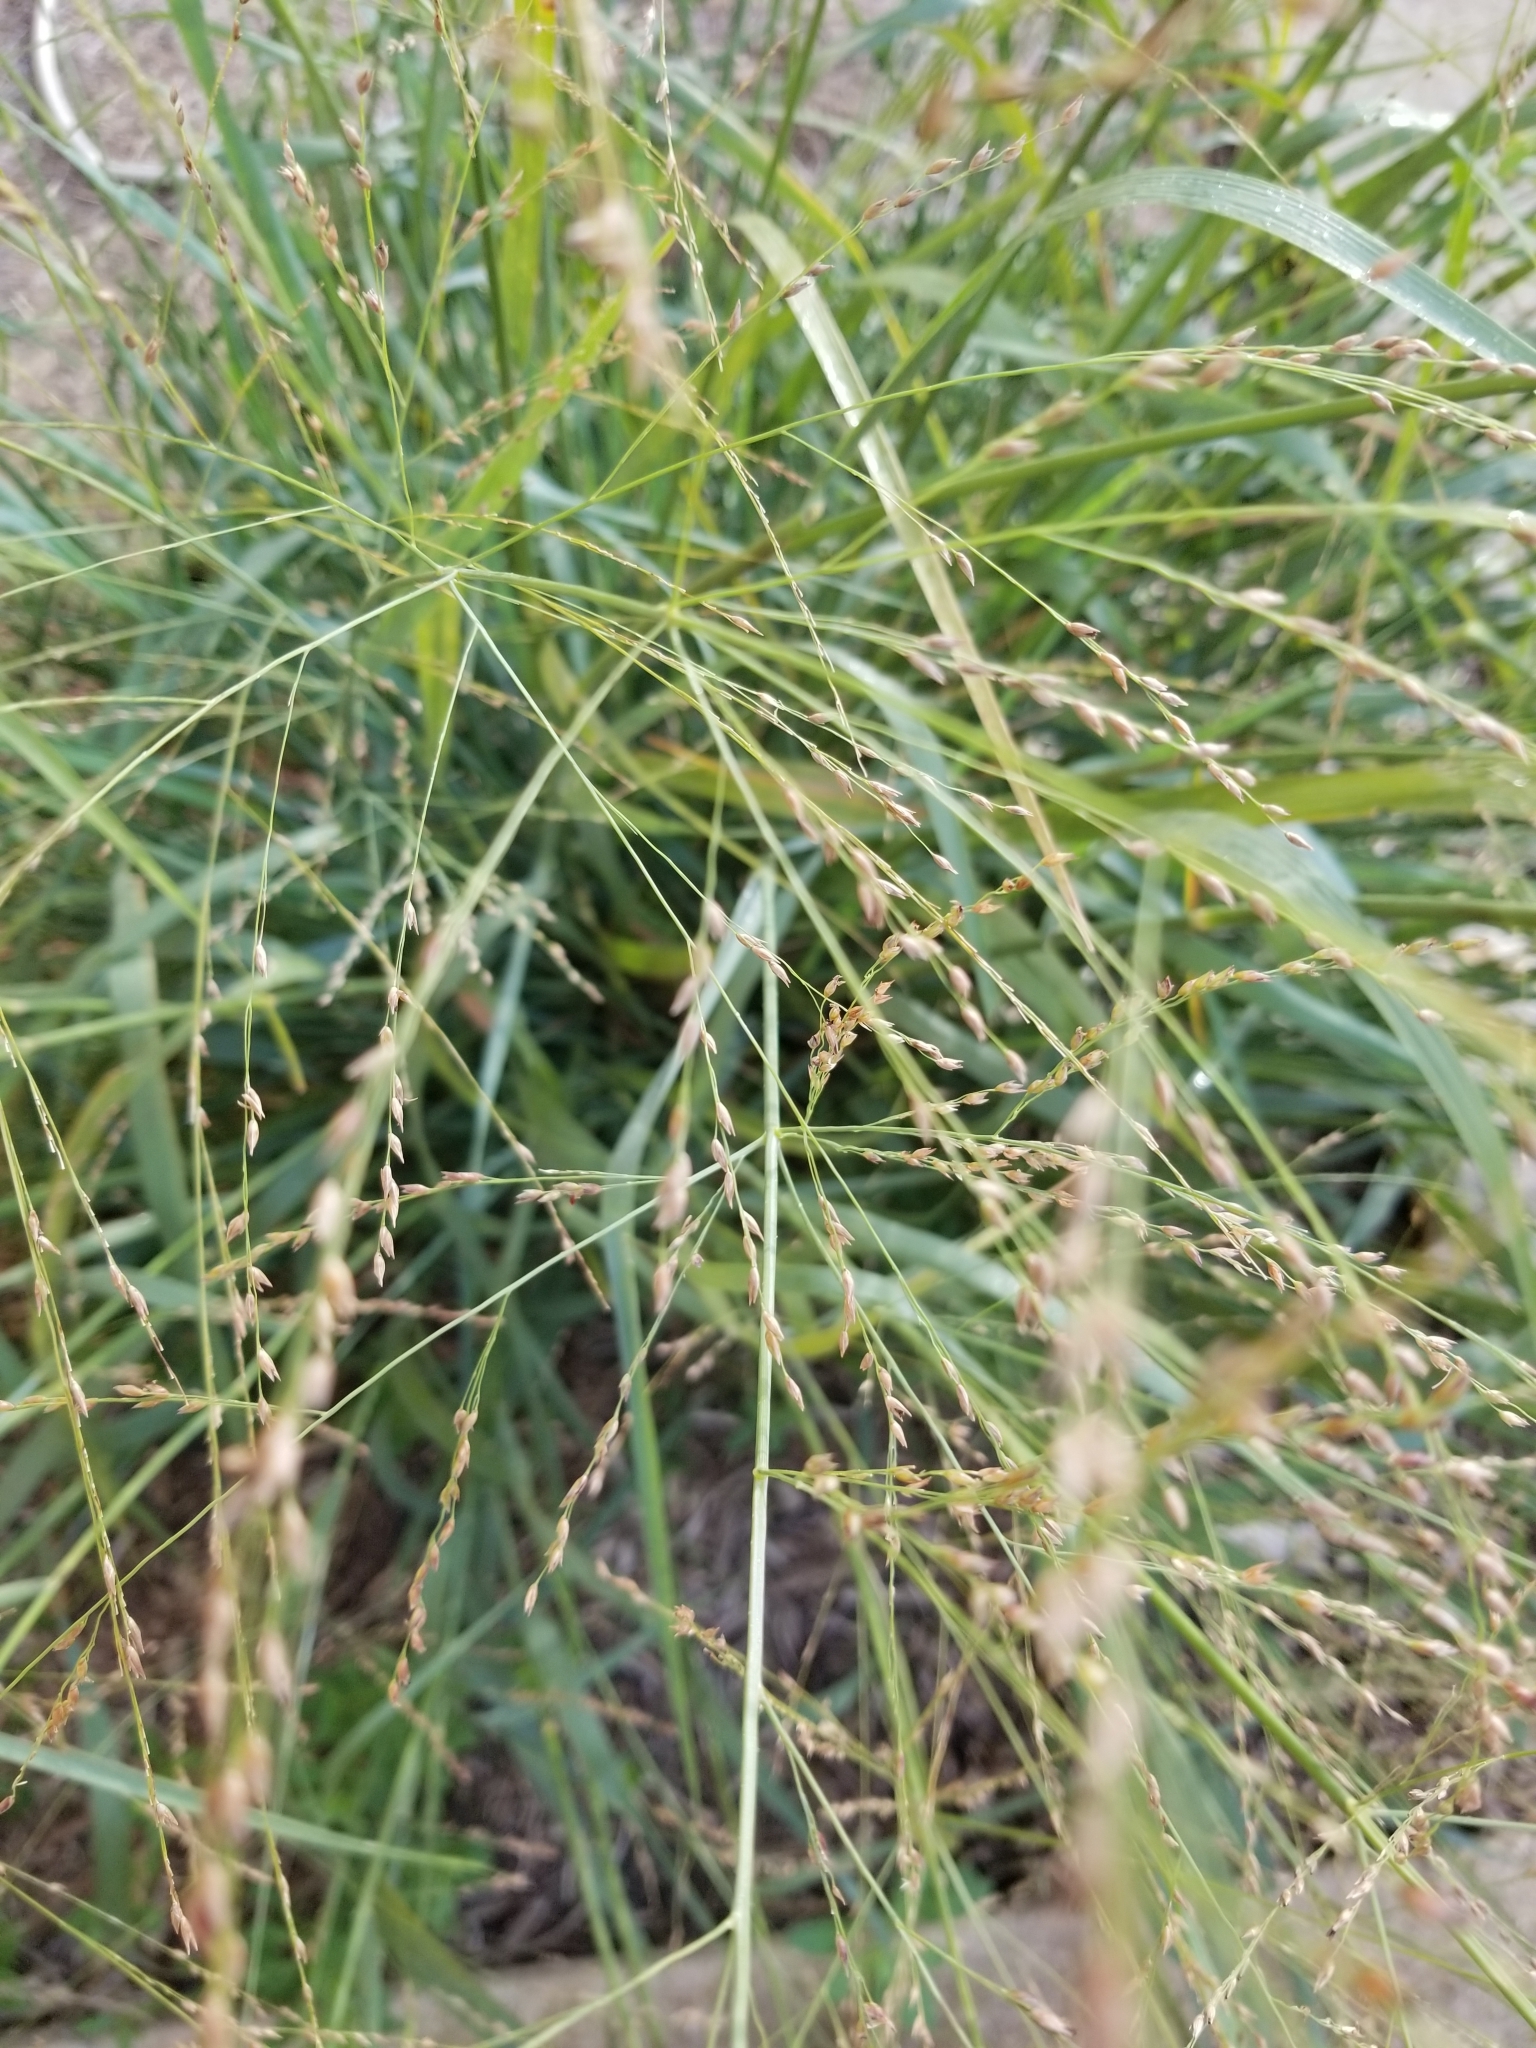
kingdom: Plantae
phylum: Tracheophyta
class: Liliopsida
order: Poales
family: Poaceae
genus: Panicum
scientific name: Panicum virgatum
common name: Switchgrass
